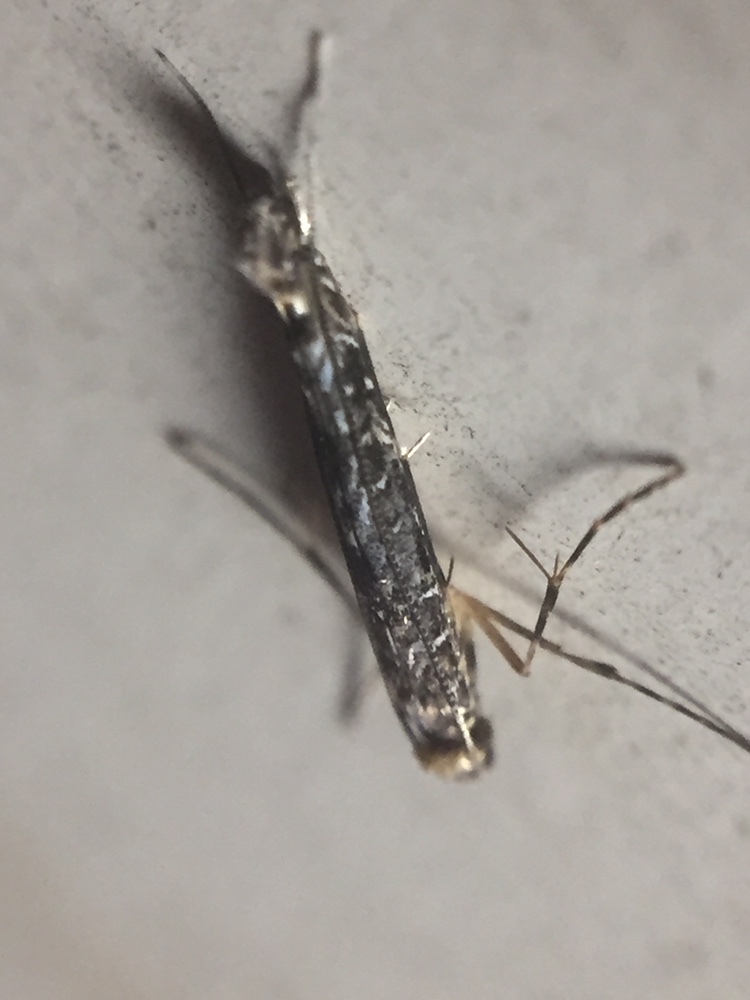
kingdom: Animalia
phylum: Arthropoda
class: Insecta
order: Lepidoptera
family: Gracillariidae
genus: Conopomorpha
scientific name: Conopomorpha cyanospila
